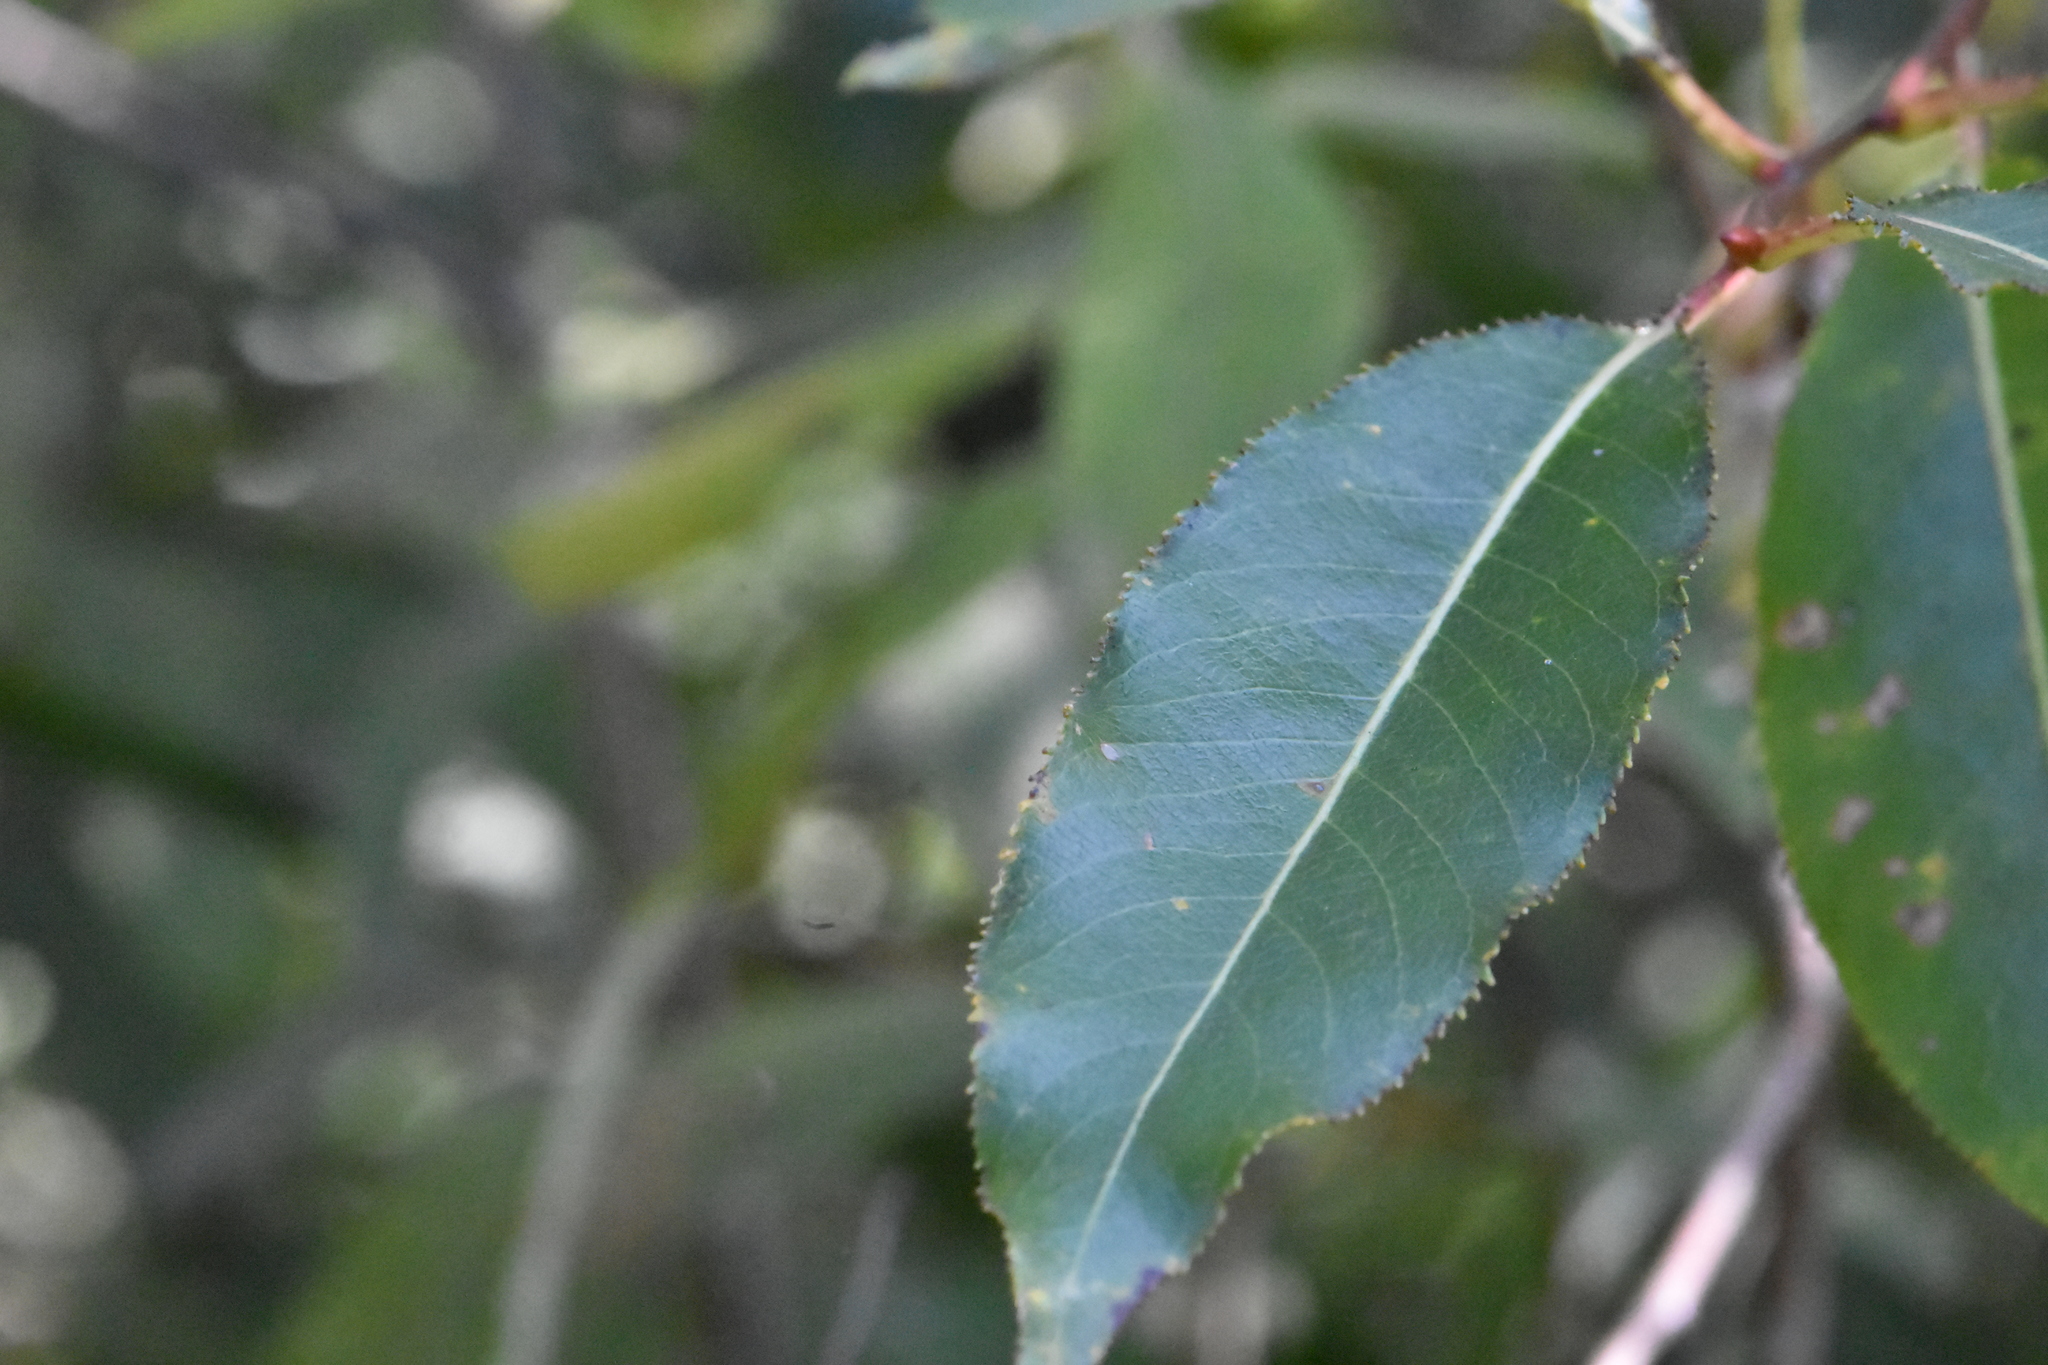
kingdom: Plantae
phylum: Tracheophyta
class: Magnoliopsida
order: Malpighiales
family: Salicaceae
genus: Salix
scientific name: Salix pentandra
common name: Bay willow
